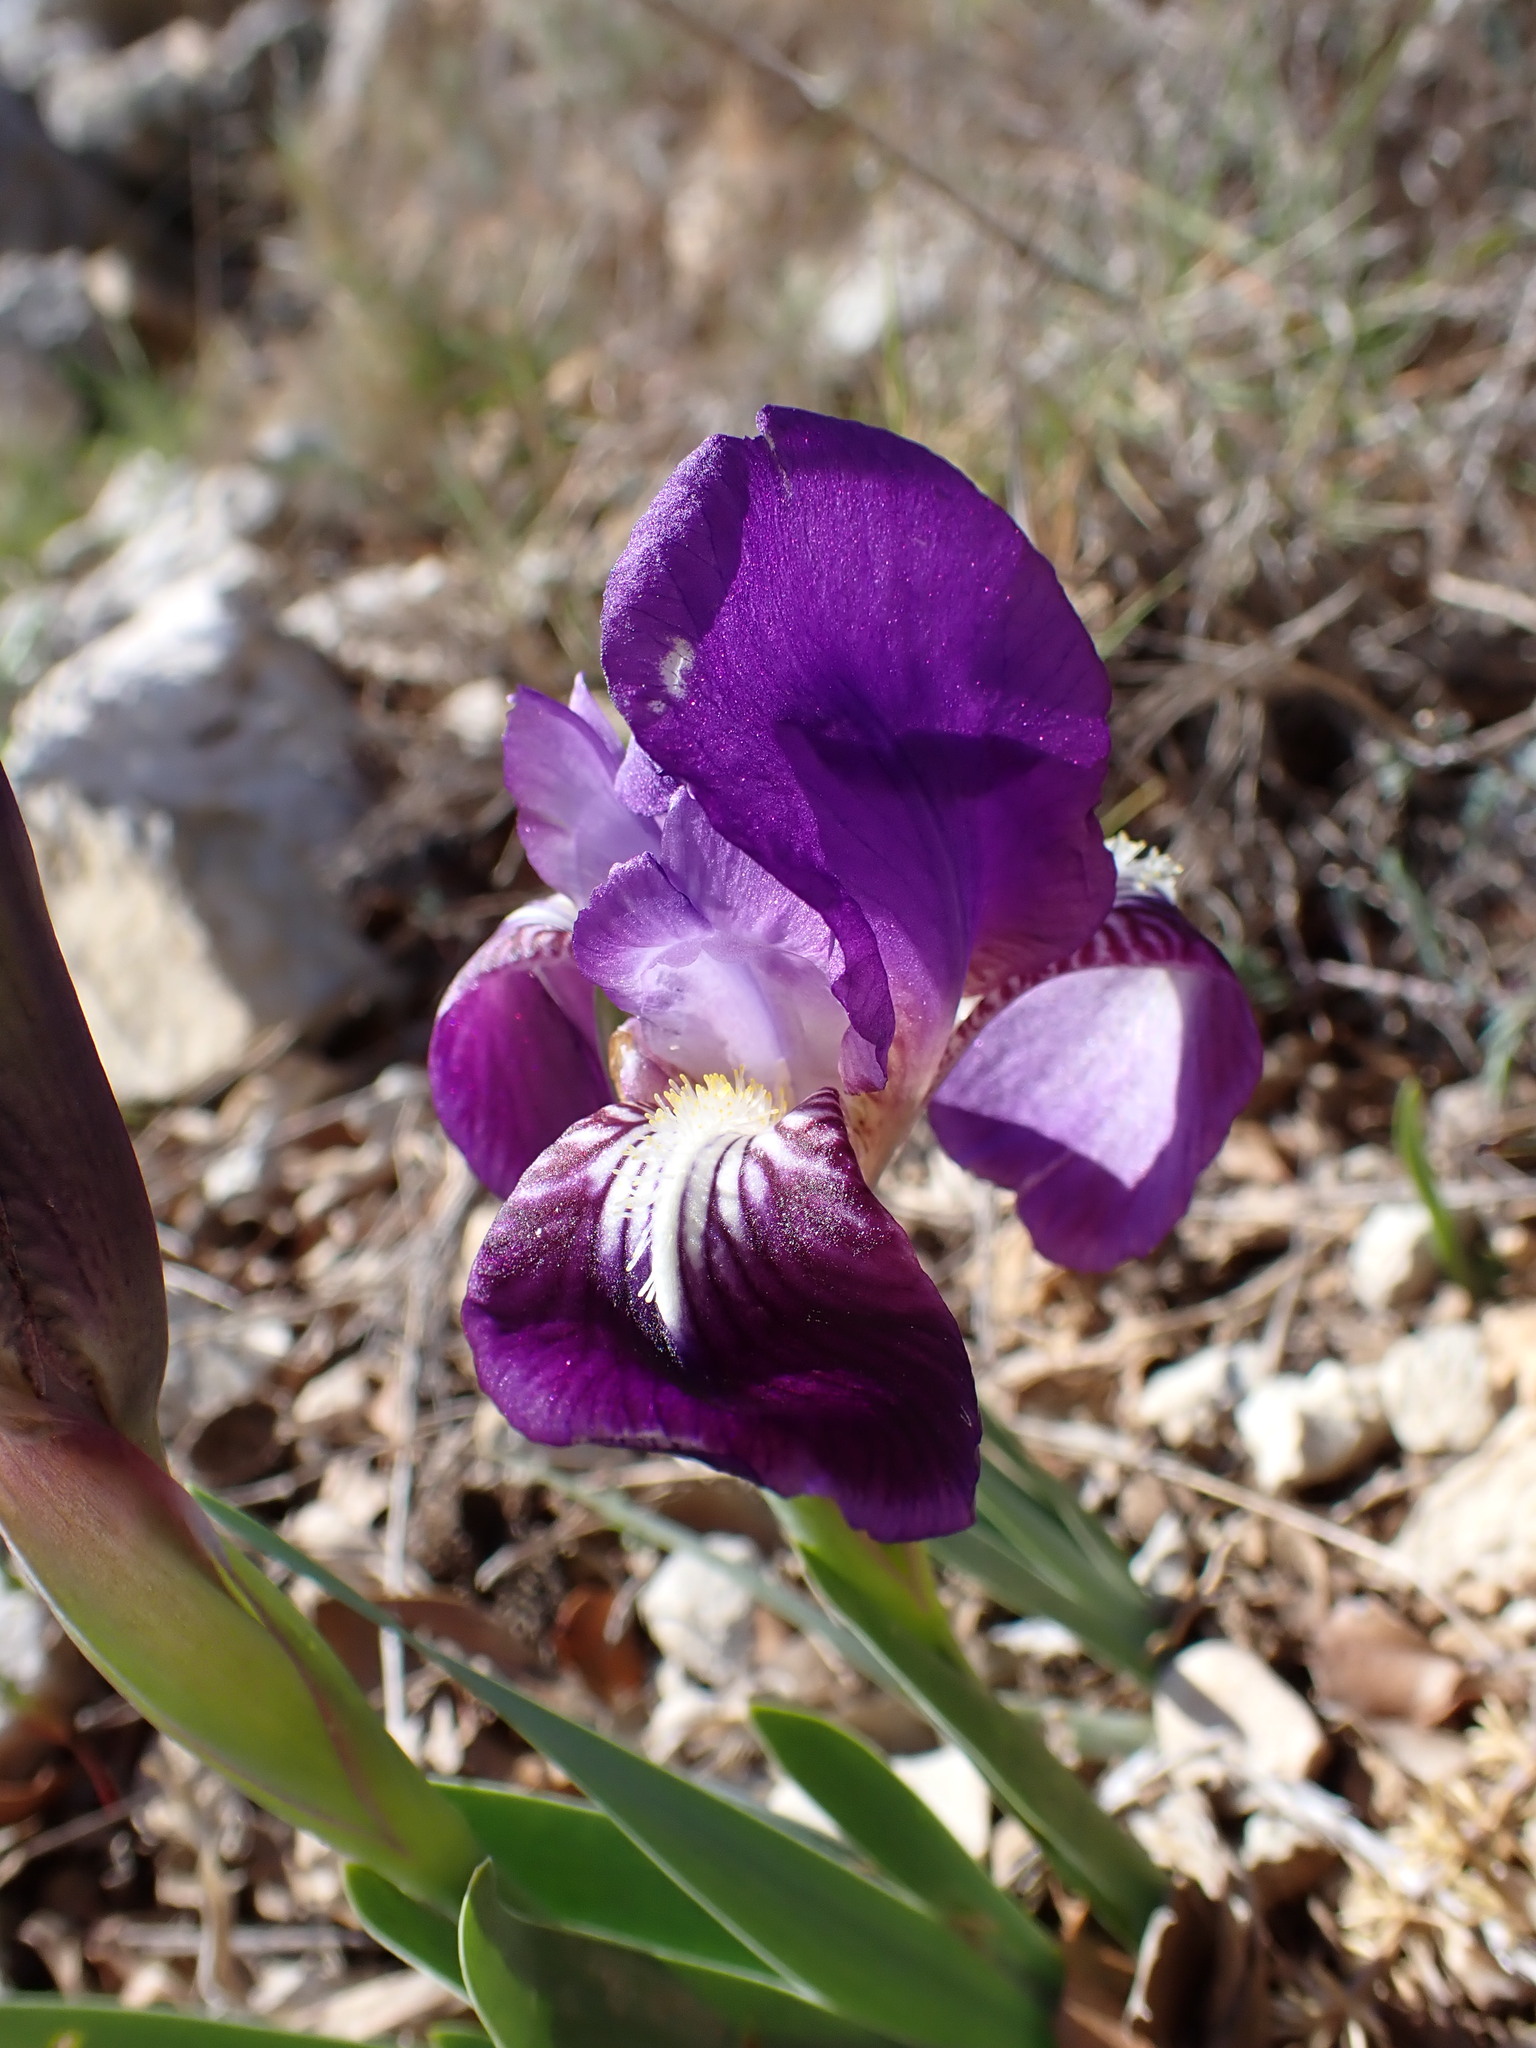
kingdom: Plantae
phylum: Tracheophyta
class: Liliopsida
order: Asparagales
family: Iridaceae
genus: Iris
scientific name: Iris lutescens
